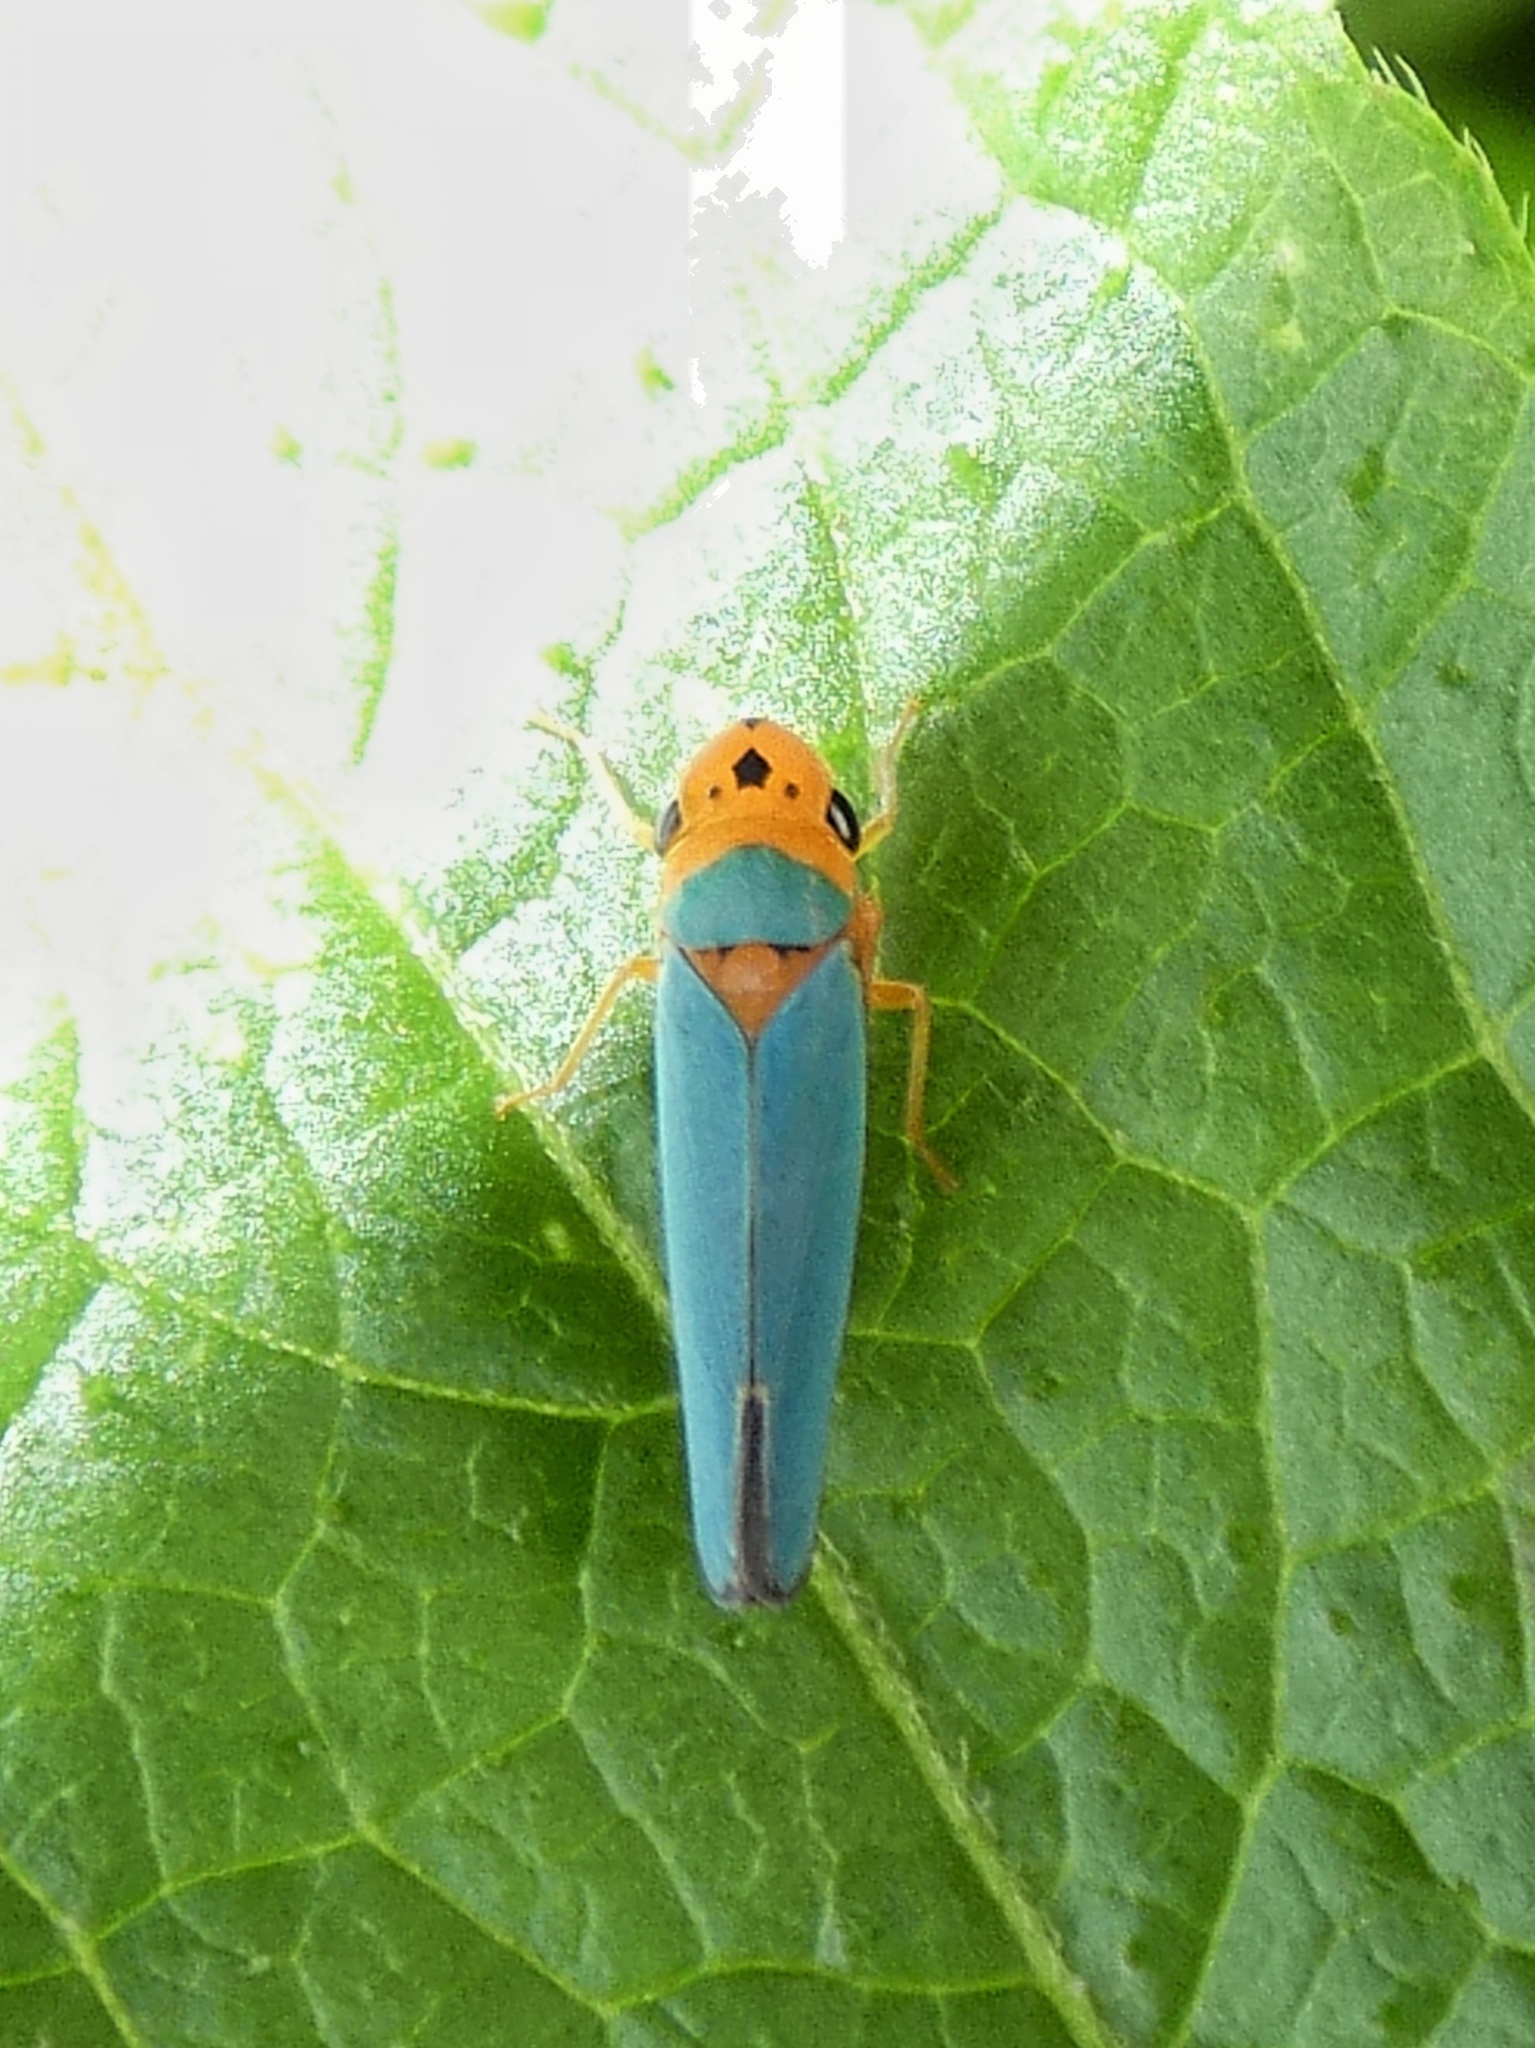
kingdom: Animalia
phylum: Arthropoda
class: Insecta
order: Hemiptera
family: Cicadellidae
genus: Macunolla
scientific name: Macunolla ventralis
